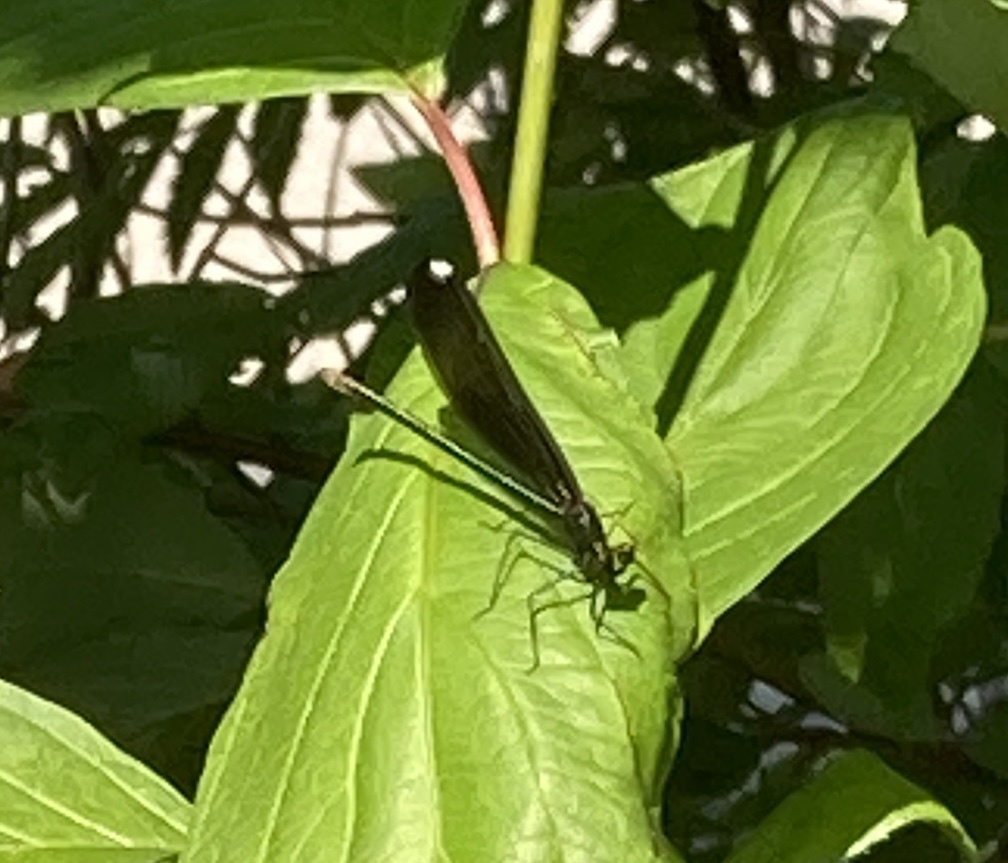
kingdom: Animalia
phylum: Arthropoda
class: Insecta
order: Odonata
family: Calopterygidae
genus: Calopteryx
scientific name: Calopteryx maculata
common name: Ebony jewelwing
